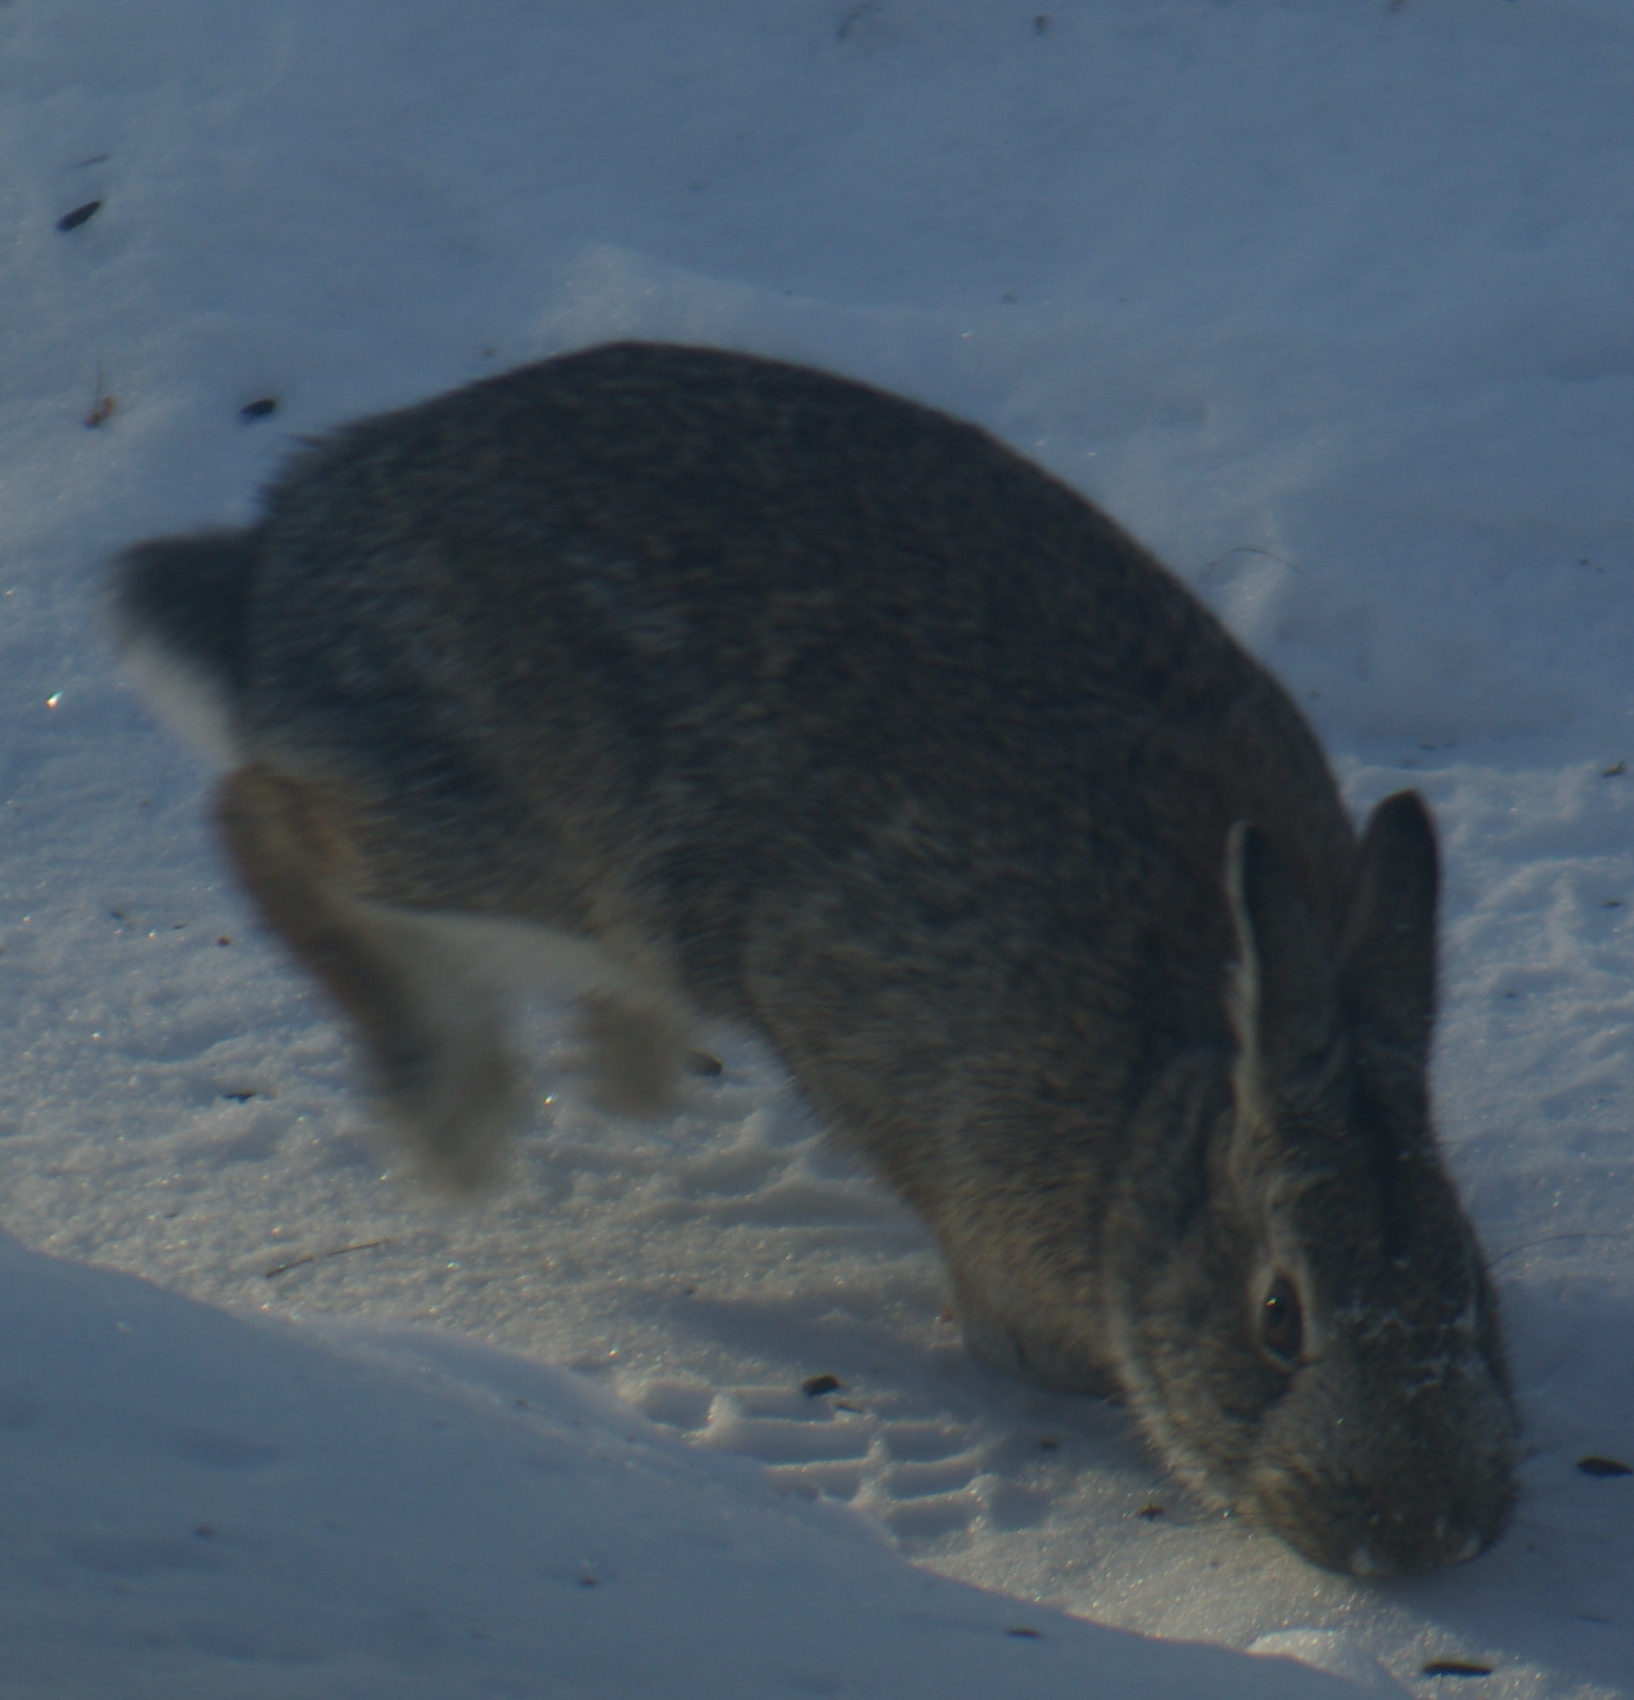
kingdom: Animalia
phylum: Chordata
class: Mammalia
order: Lagomorpha
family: Leporidae
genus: Sylvilagus
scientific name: Sylvilagus floridanus
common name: Eastern cottontail
